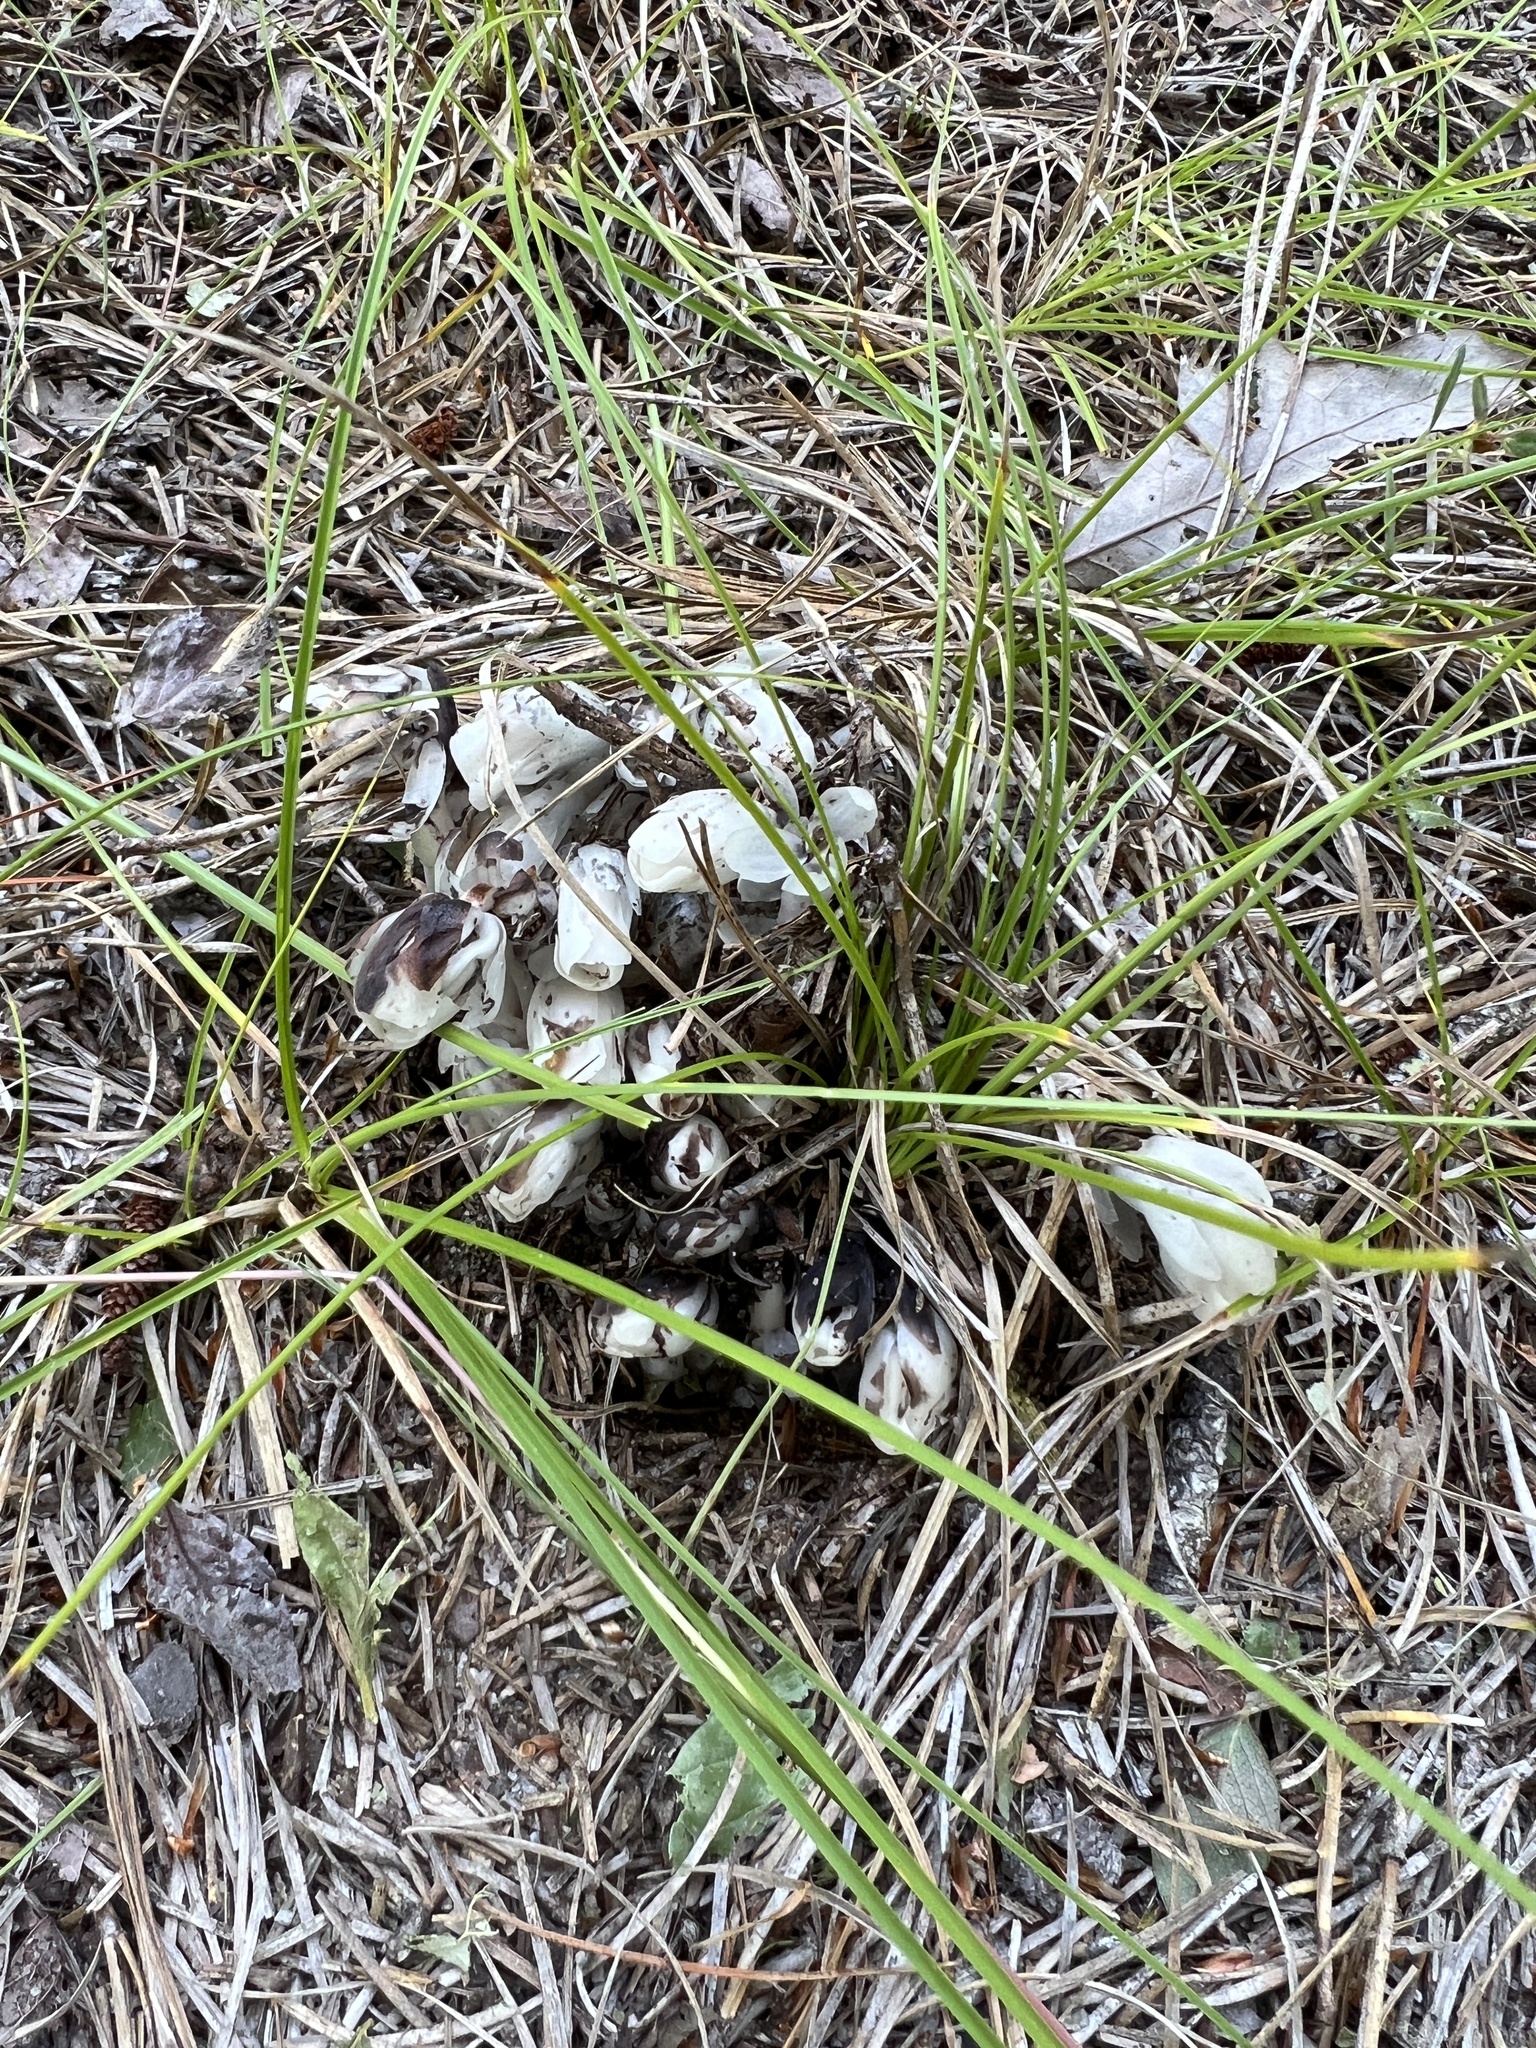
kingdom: Plantae
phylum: Tracheophyta
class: Magnoliopsida
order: Ericales
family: Ericaceae
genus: Monotropa
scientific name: Monotropa uniflora
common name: Convulsion root
